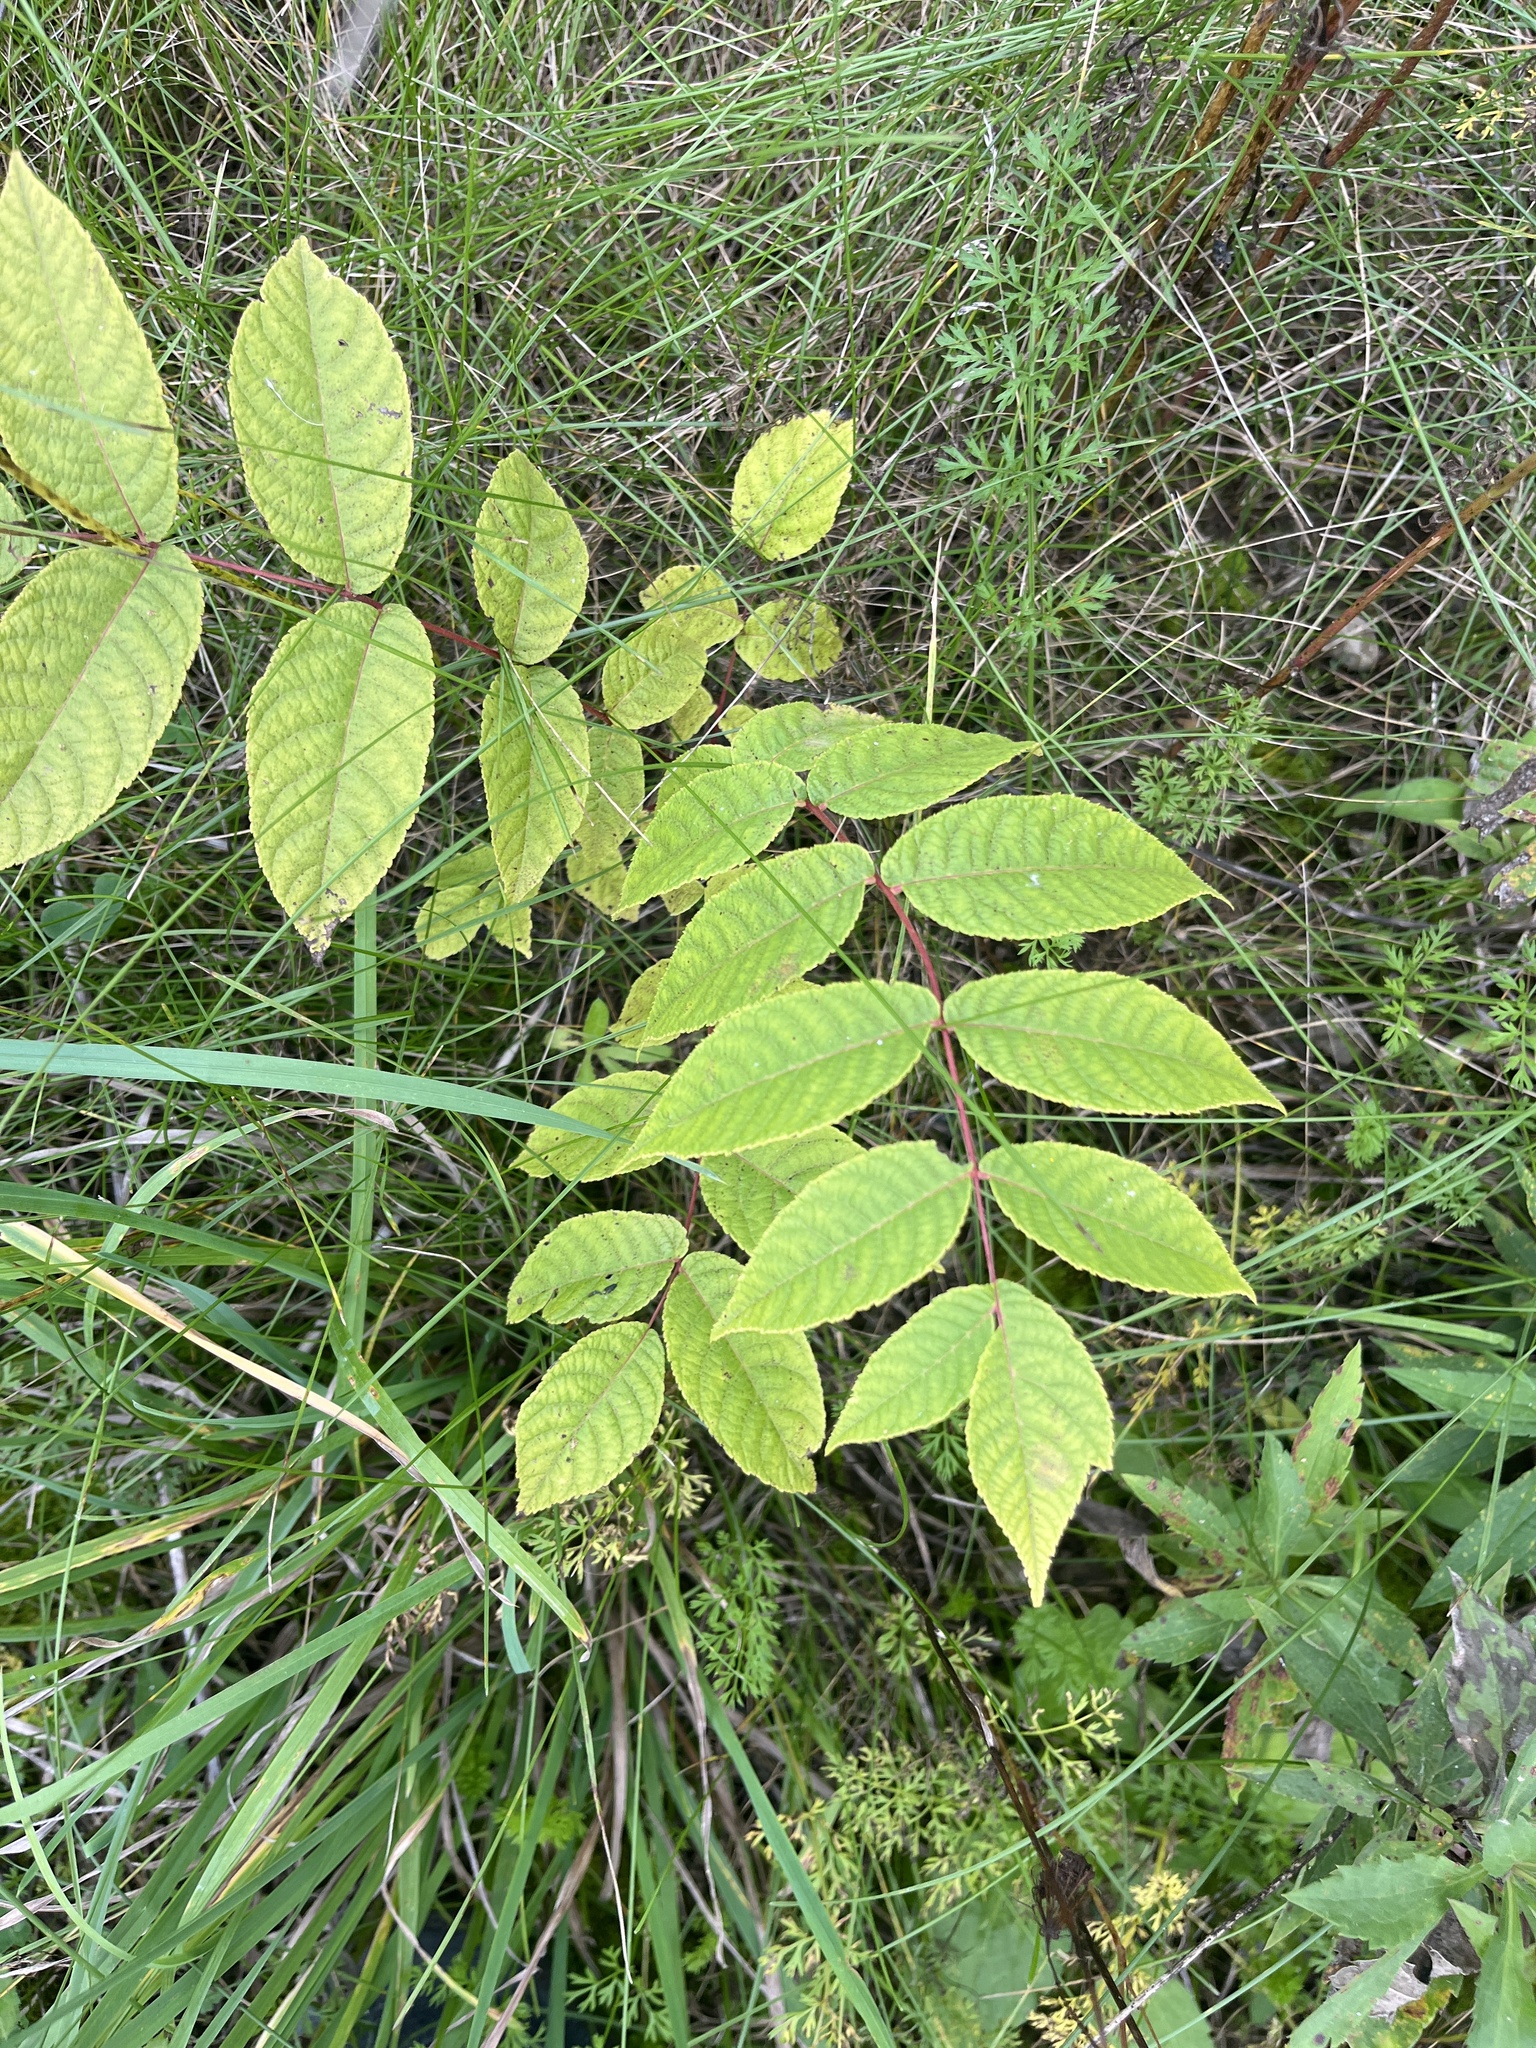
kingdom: Plantae
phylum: Tracheophyta
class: Magnoliopsida
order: Fagales
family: Juglandaceae
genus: Juglans
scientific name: Juglans nigra
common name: Black walnut
